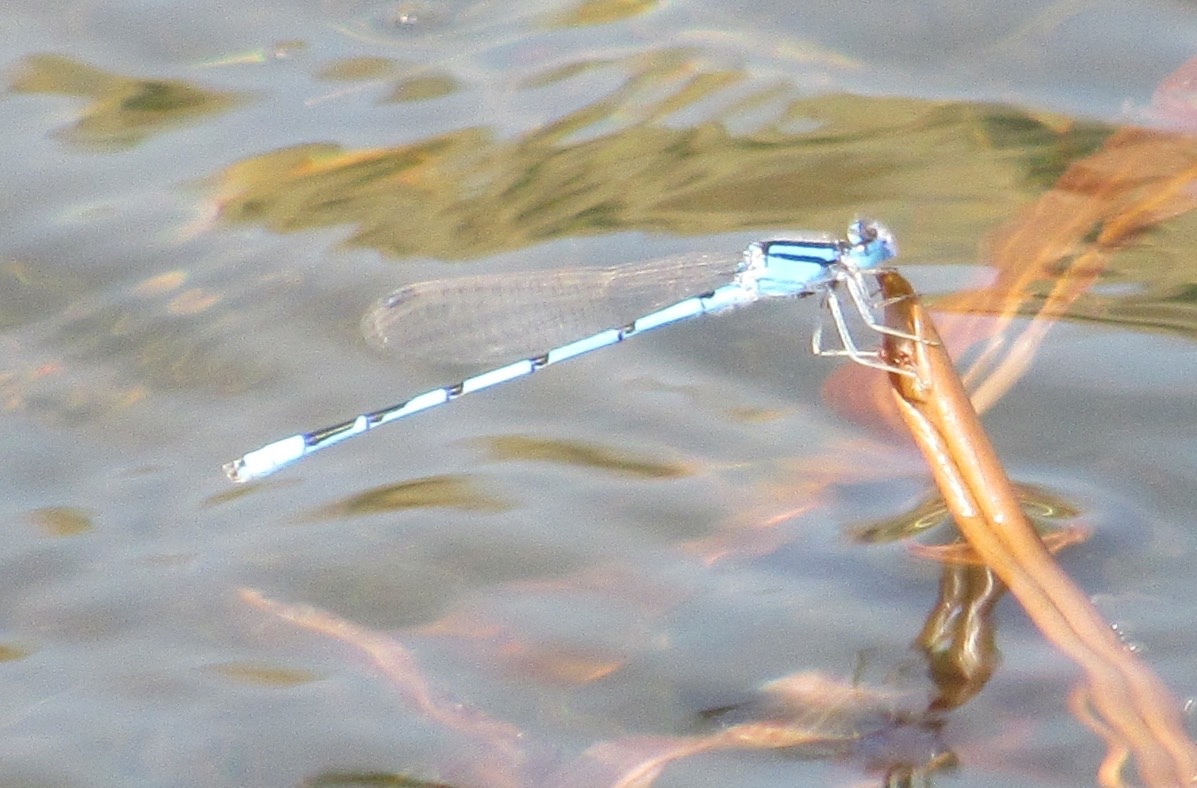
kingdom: Animalia
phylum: Arthropoda
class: Insecta
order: Odonata
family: Coenagrionidae
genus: Enallagma
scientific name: Enallagma civile
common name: Damselfly
